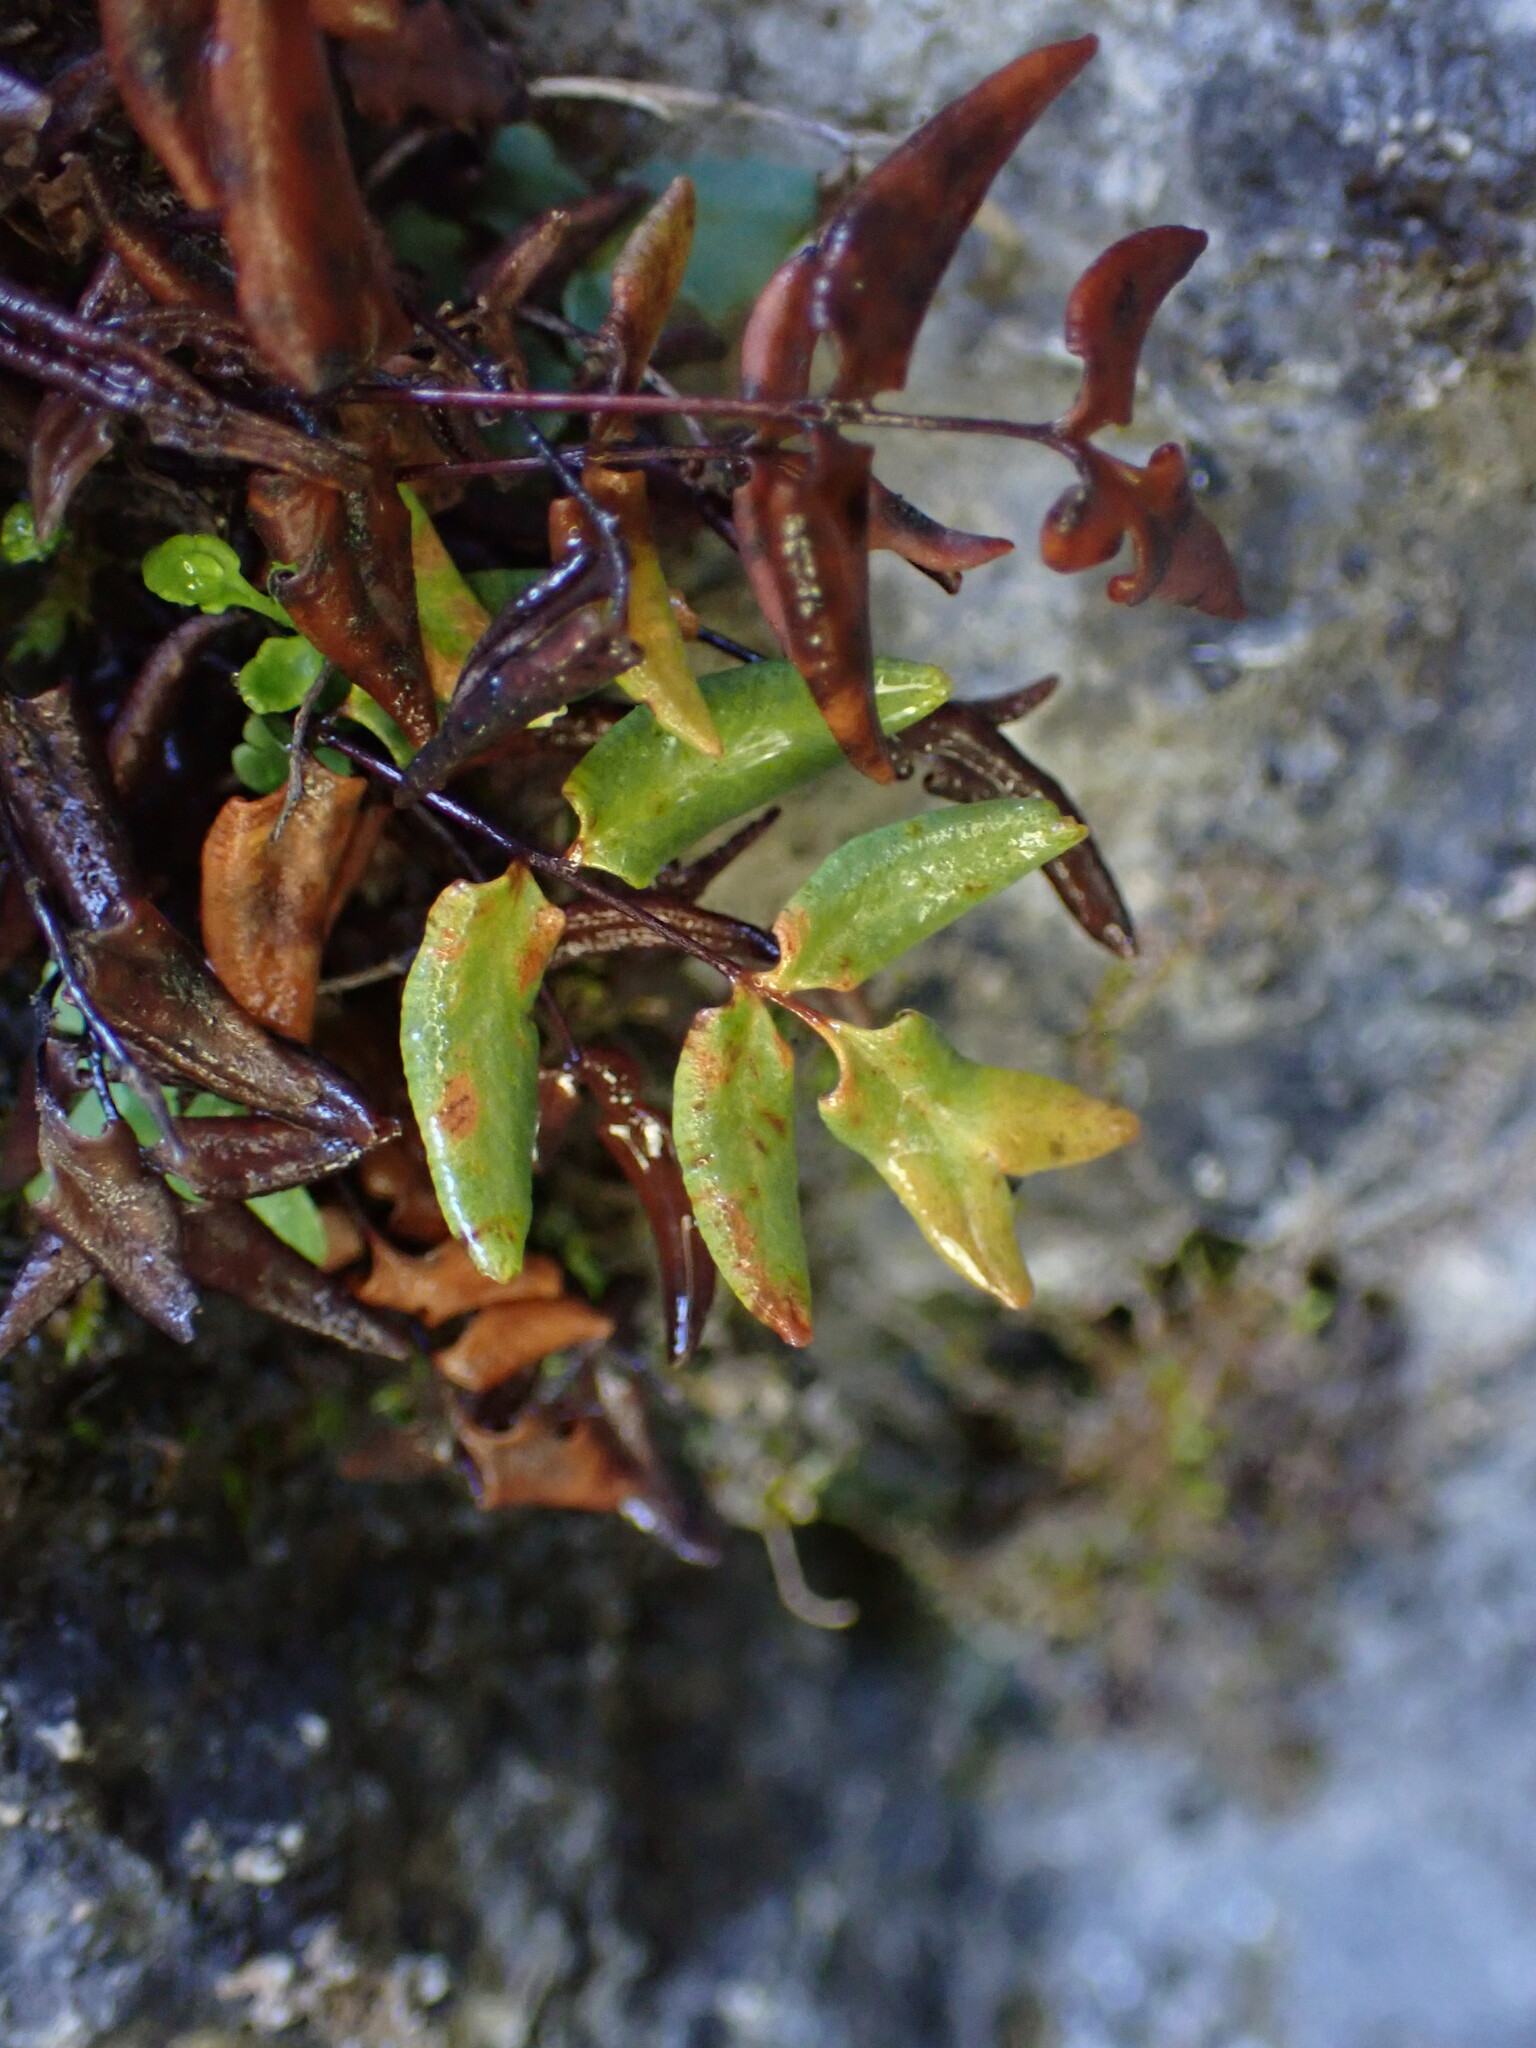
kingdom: Plantae
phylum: Tracheophyta
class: Polypodiopsida
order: Polypodiales
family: Pteridaceae
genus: Pellaea
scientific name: Pellaea glabella
